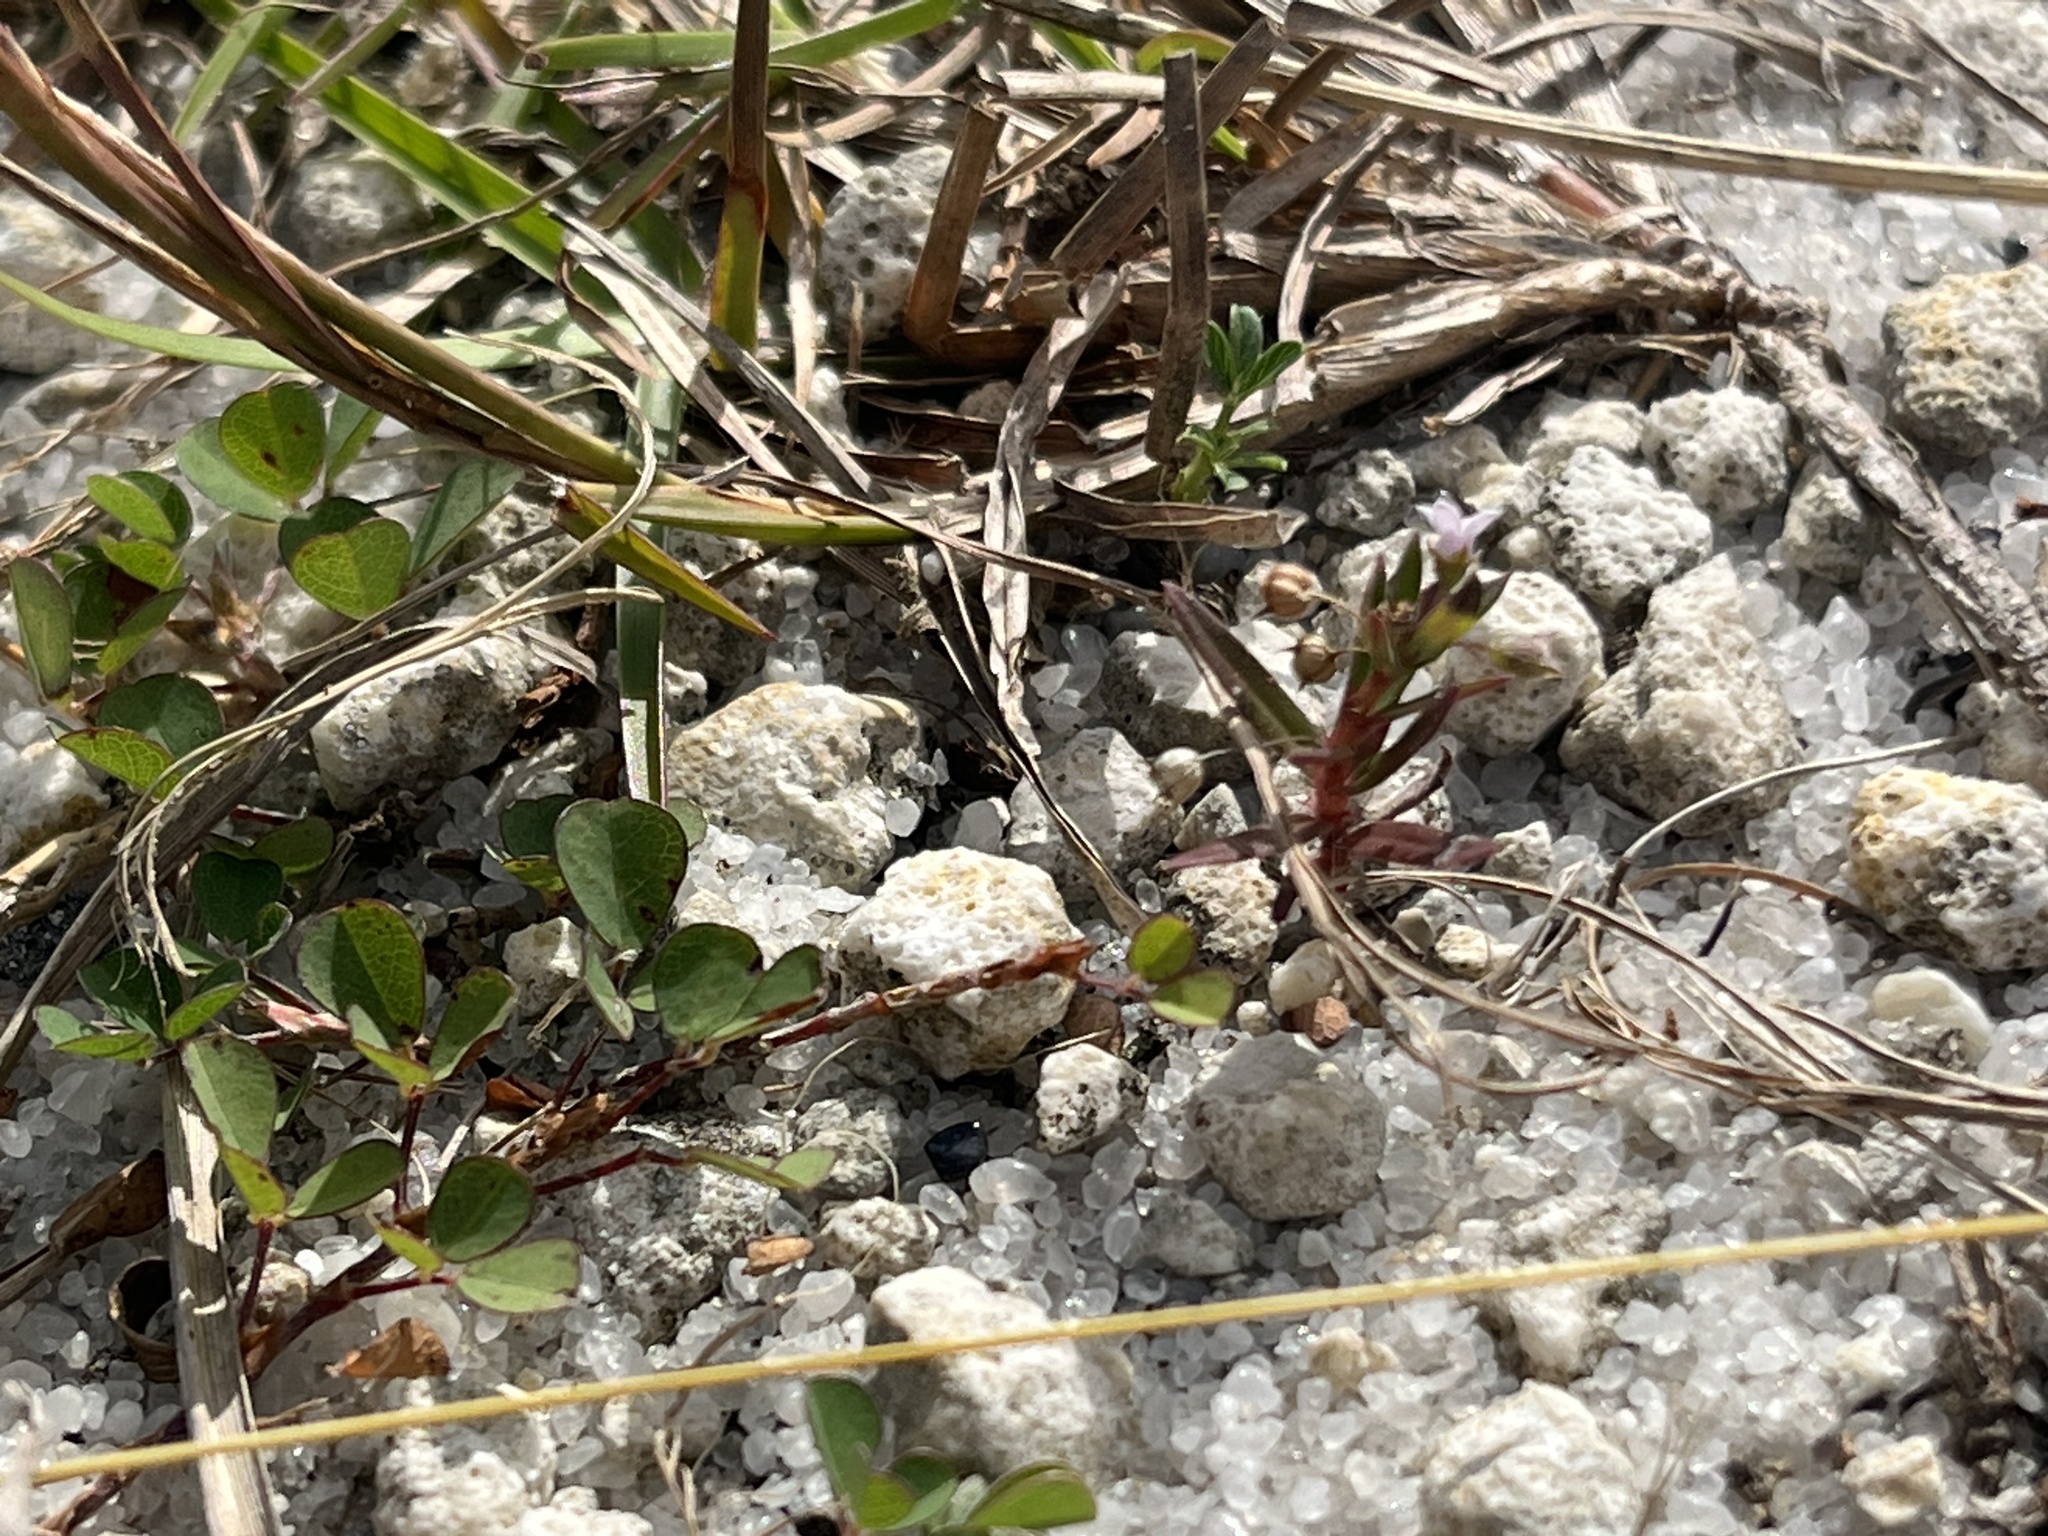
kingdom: Plantae
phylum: Tracheophyta
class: Magnoliopsida
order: Gentianales
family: Rubiaceae
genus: Oldenlandia
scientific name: Oldenlandia corymbosa
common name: Flat-top mille graines
